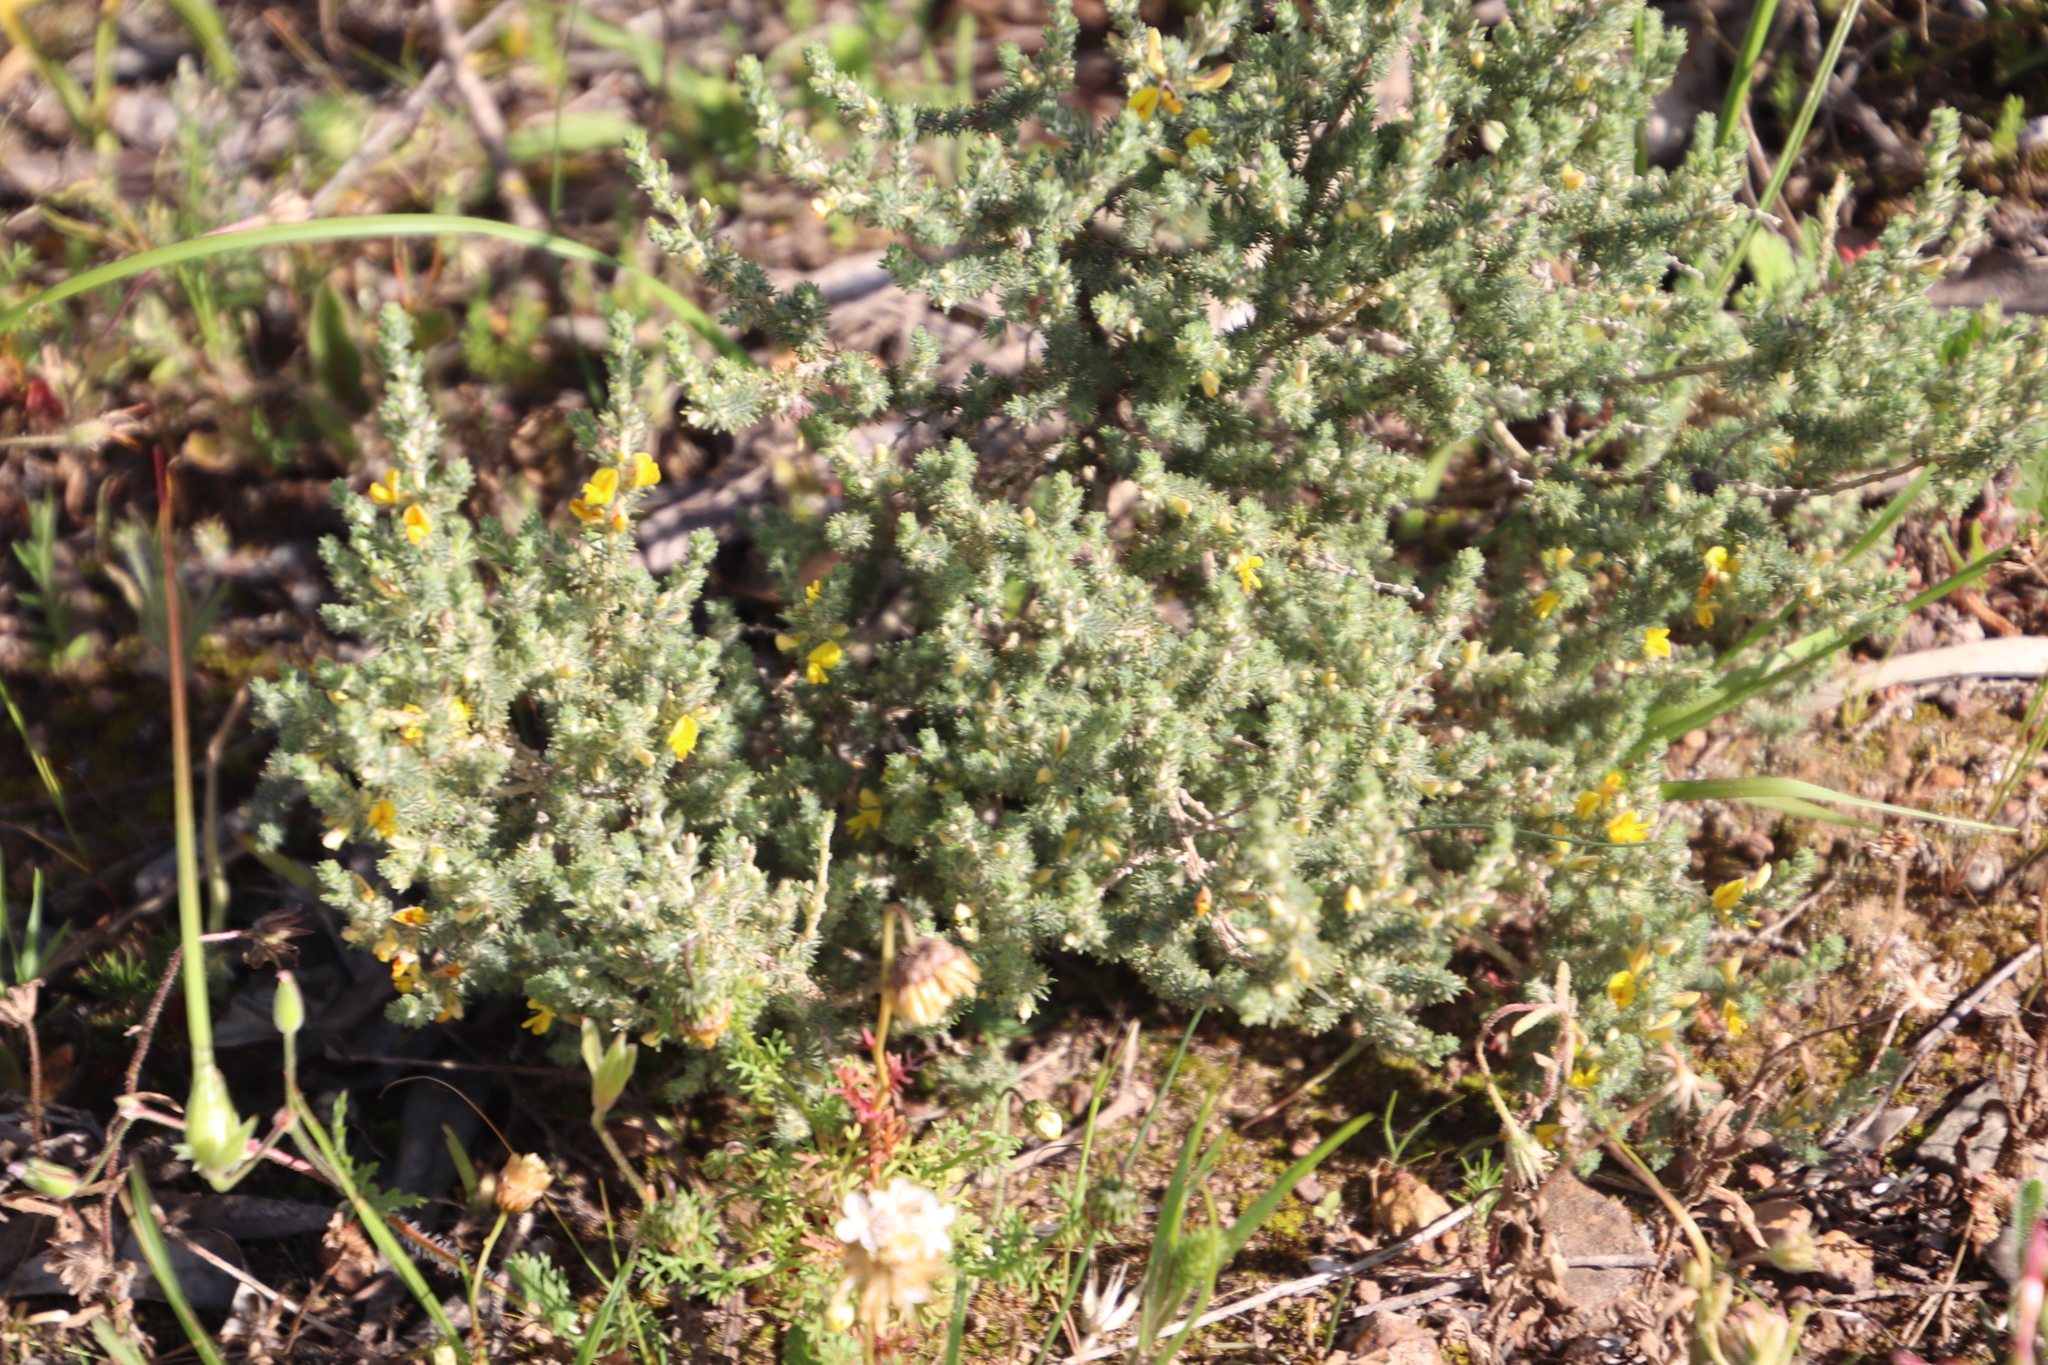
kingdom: Plantae
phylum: Tracheophyta
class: Magnoliopsida
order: Fabales
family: Fabaceae
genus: Aspalathus
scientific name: Aspalathus muraltioides
